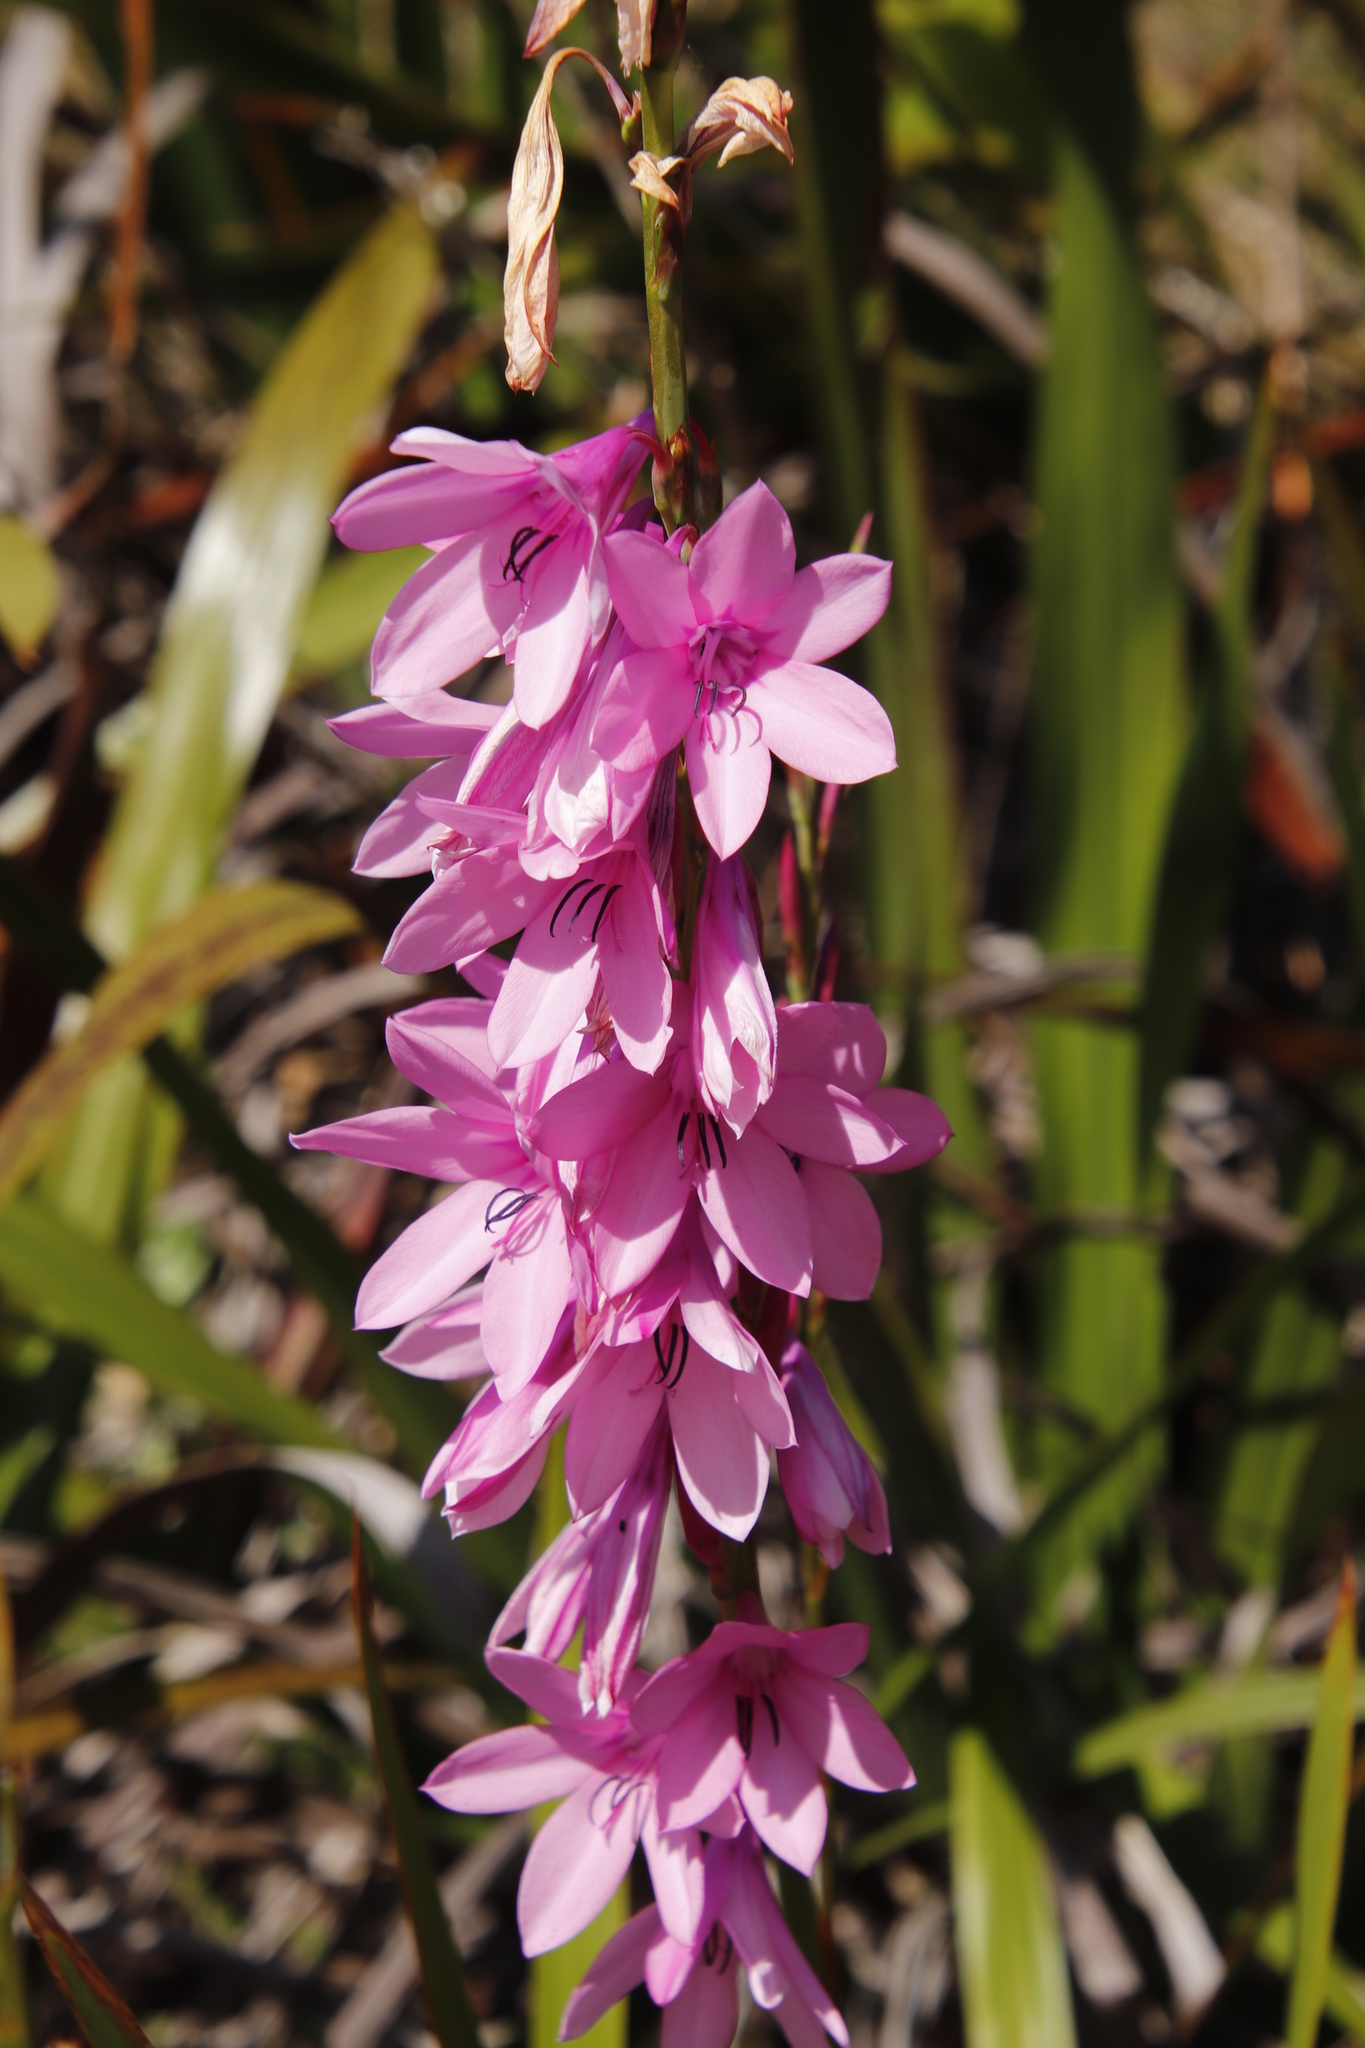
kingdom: Plantae
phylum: Tracheophyta
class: Liliopsida
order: Asparagales
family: Iridaceae
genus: Watsonia
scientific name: Watsonia borbonica
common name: Bugle-lily
